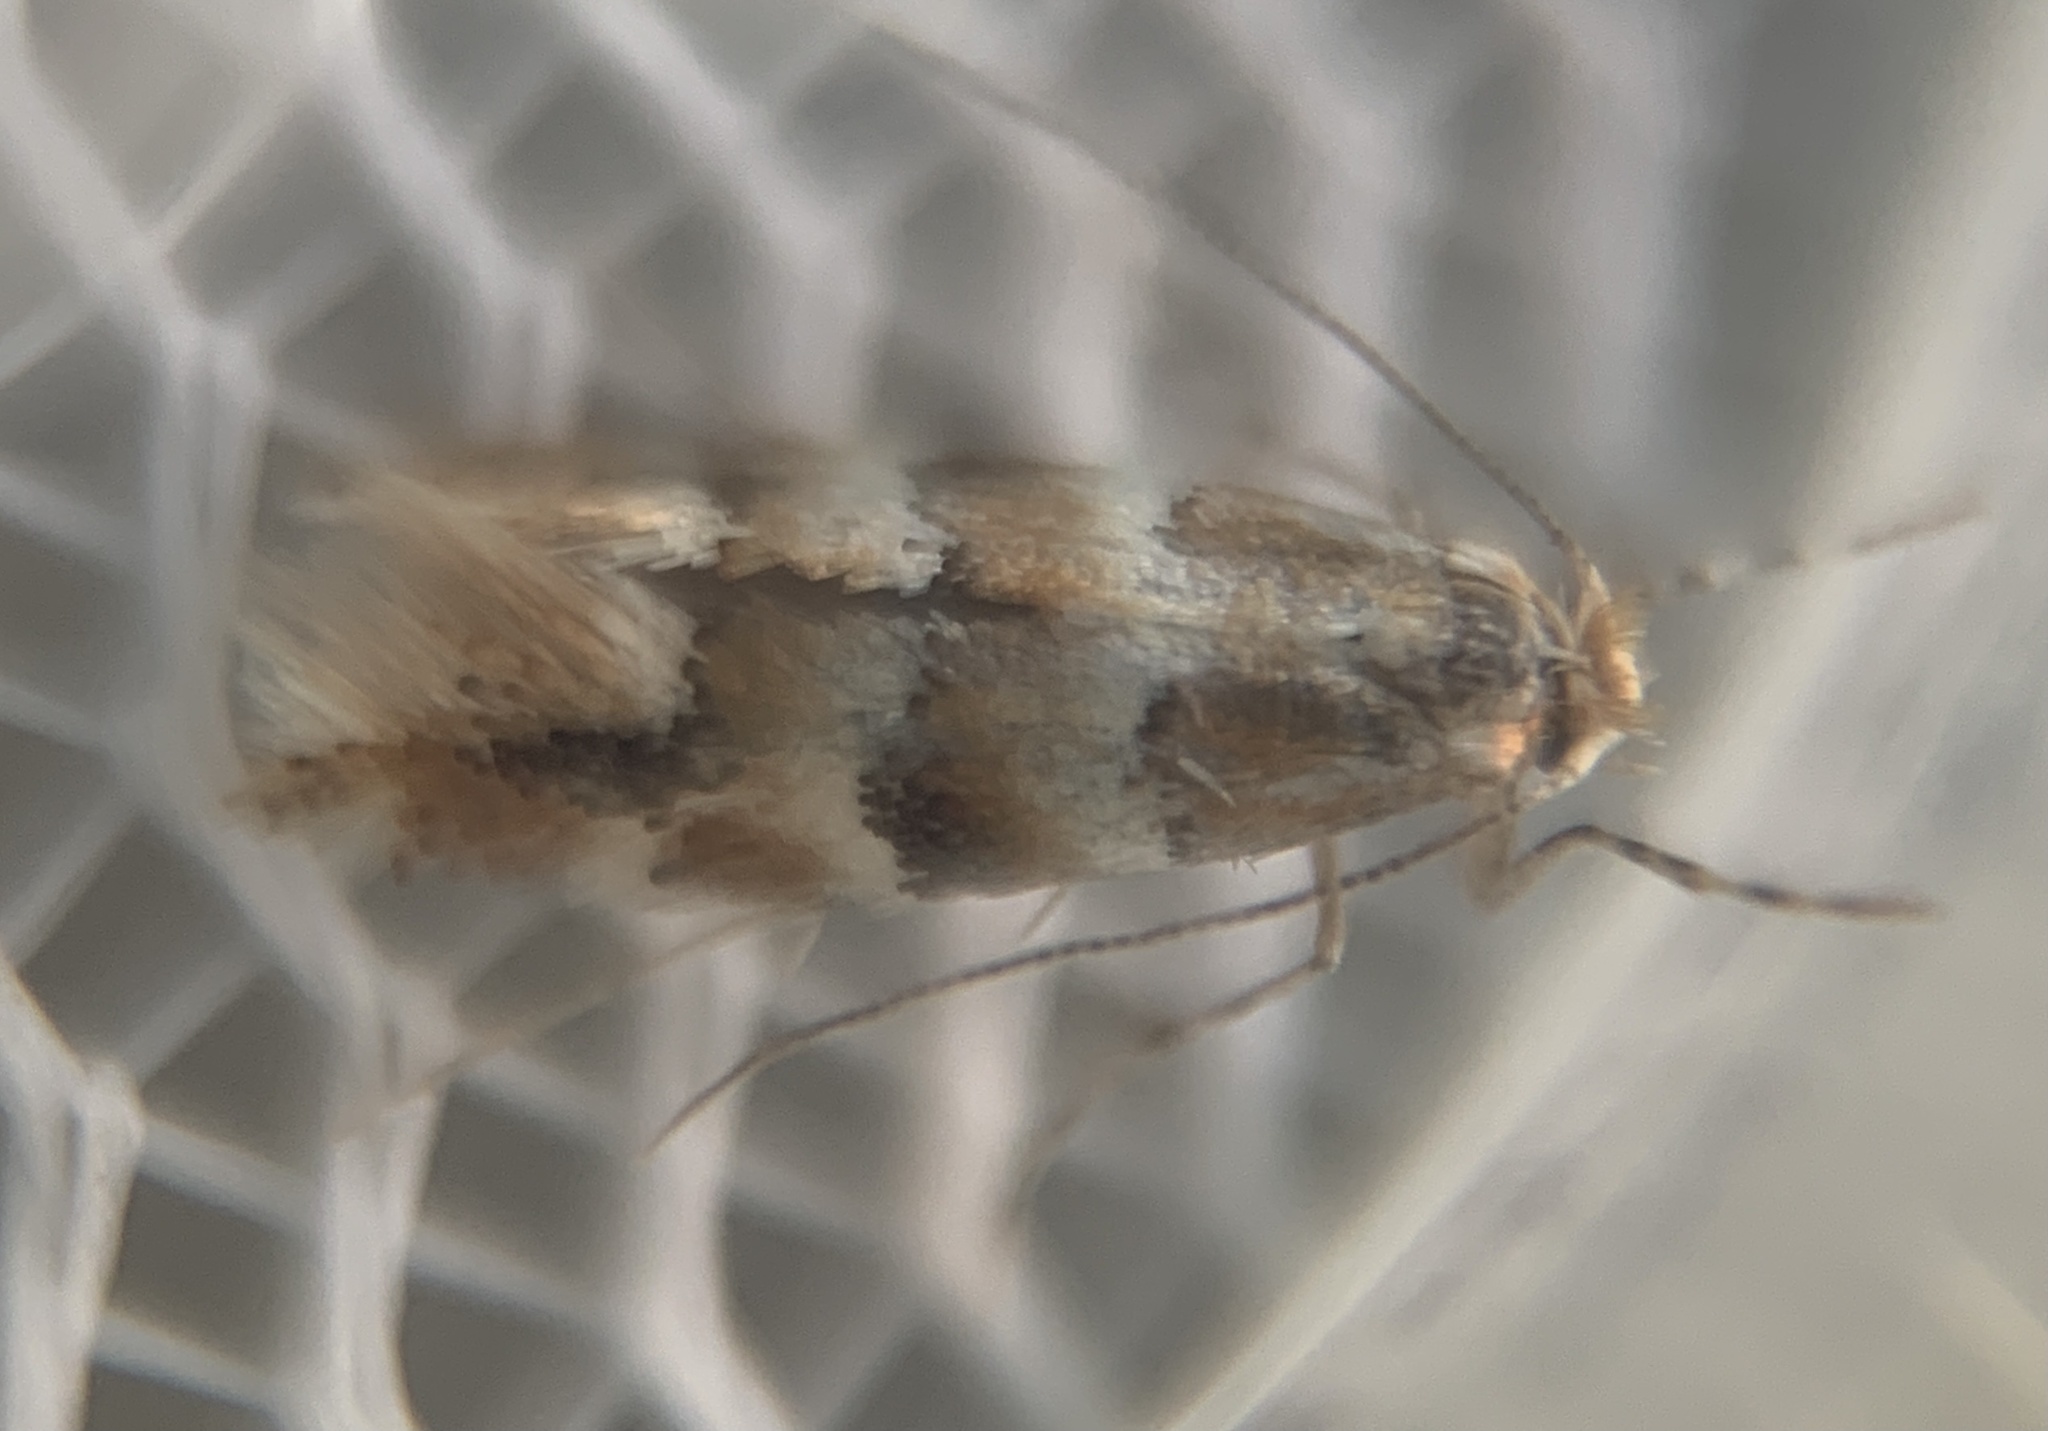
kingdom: Animalia
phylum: Arthropoda
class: Insecta
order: Lepidoptera
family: Gracillariidae
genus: Phyllonorycter
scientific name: Phyllonorycter emberizaepenella
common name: Large midget
